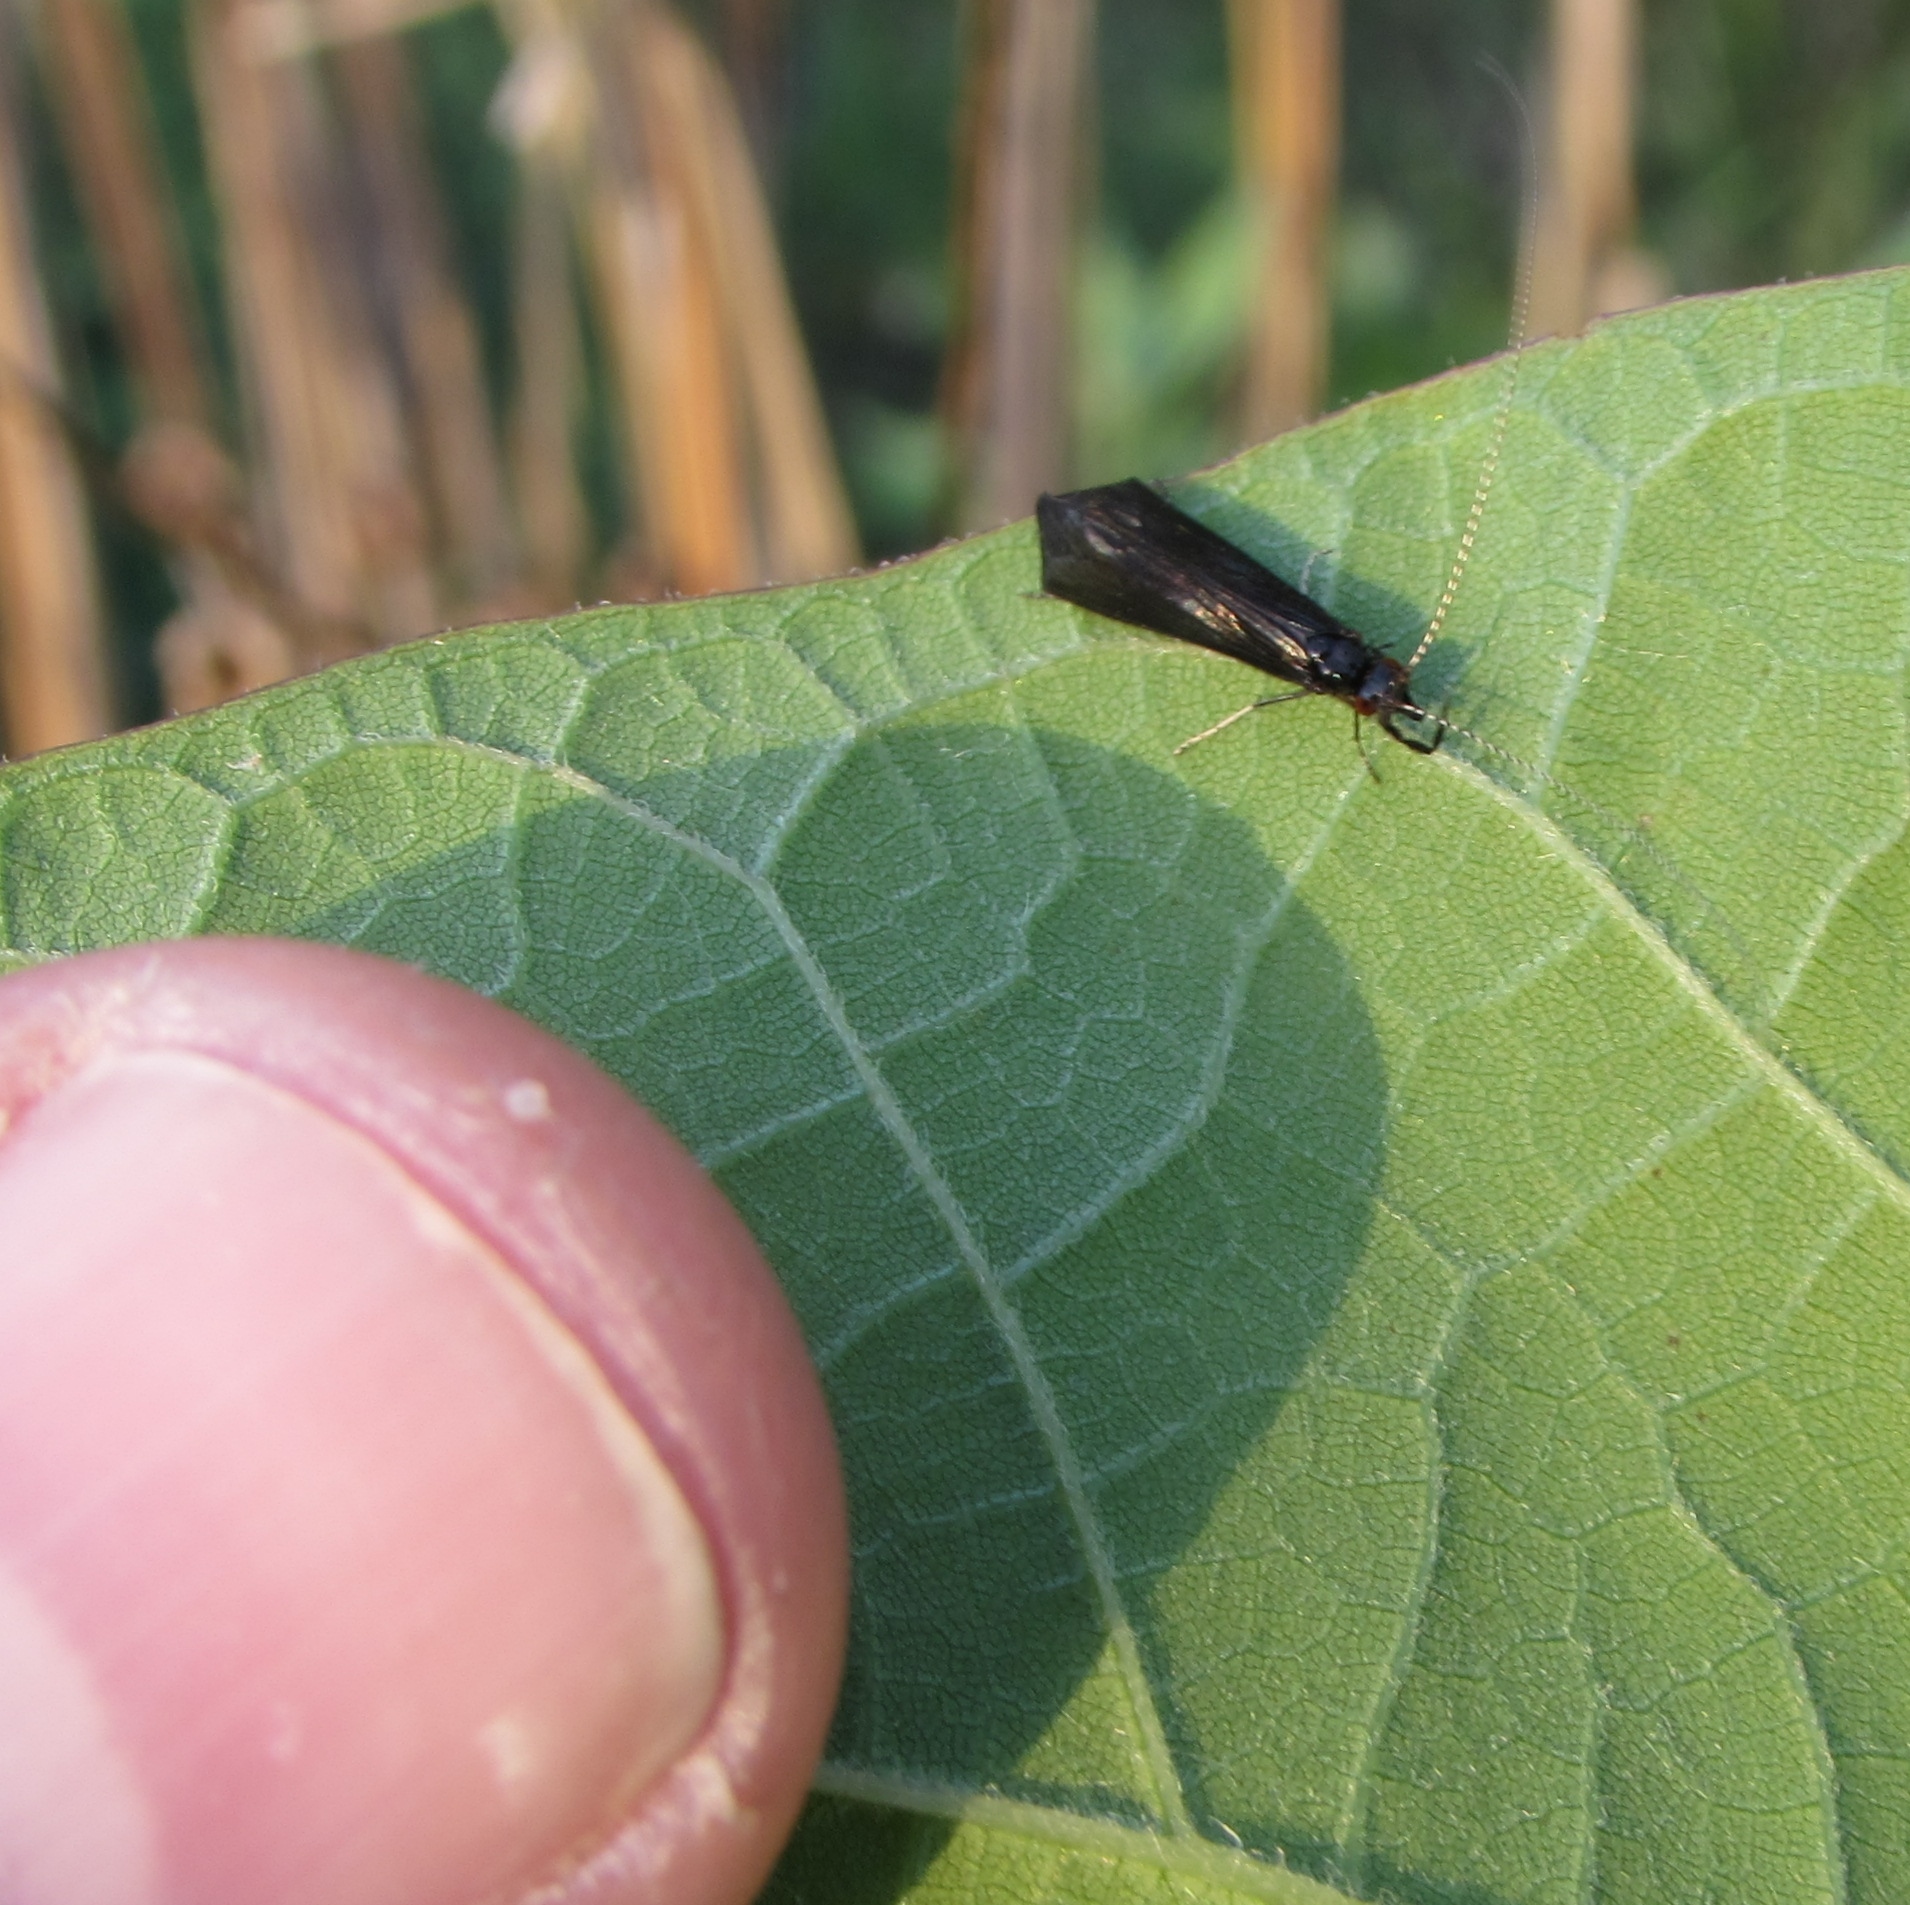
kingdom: Animalia
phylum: Arthropoda
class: Insecta
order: Trichoptera
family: Leptoceridae
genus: Mystacides
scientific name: Mystacides sepulchralis
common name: Black dancer caddisfly
